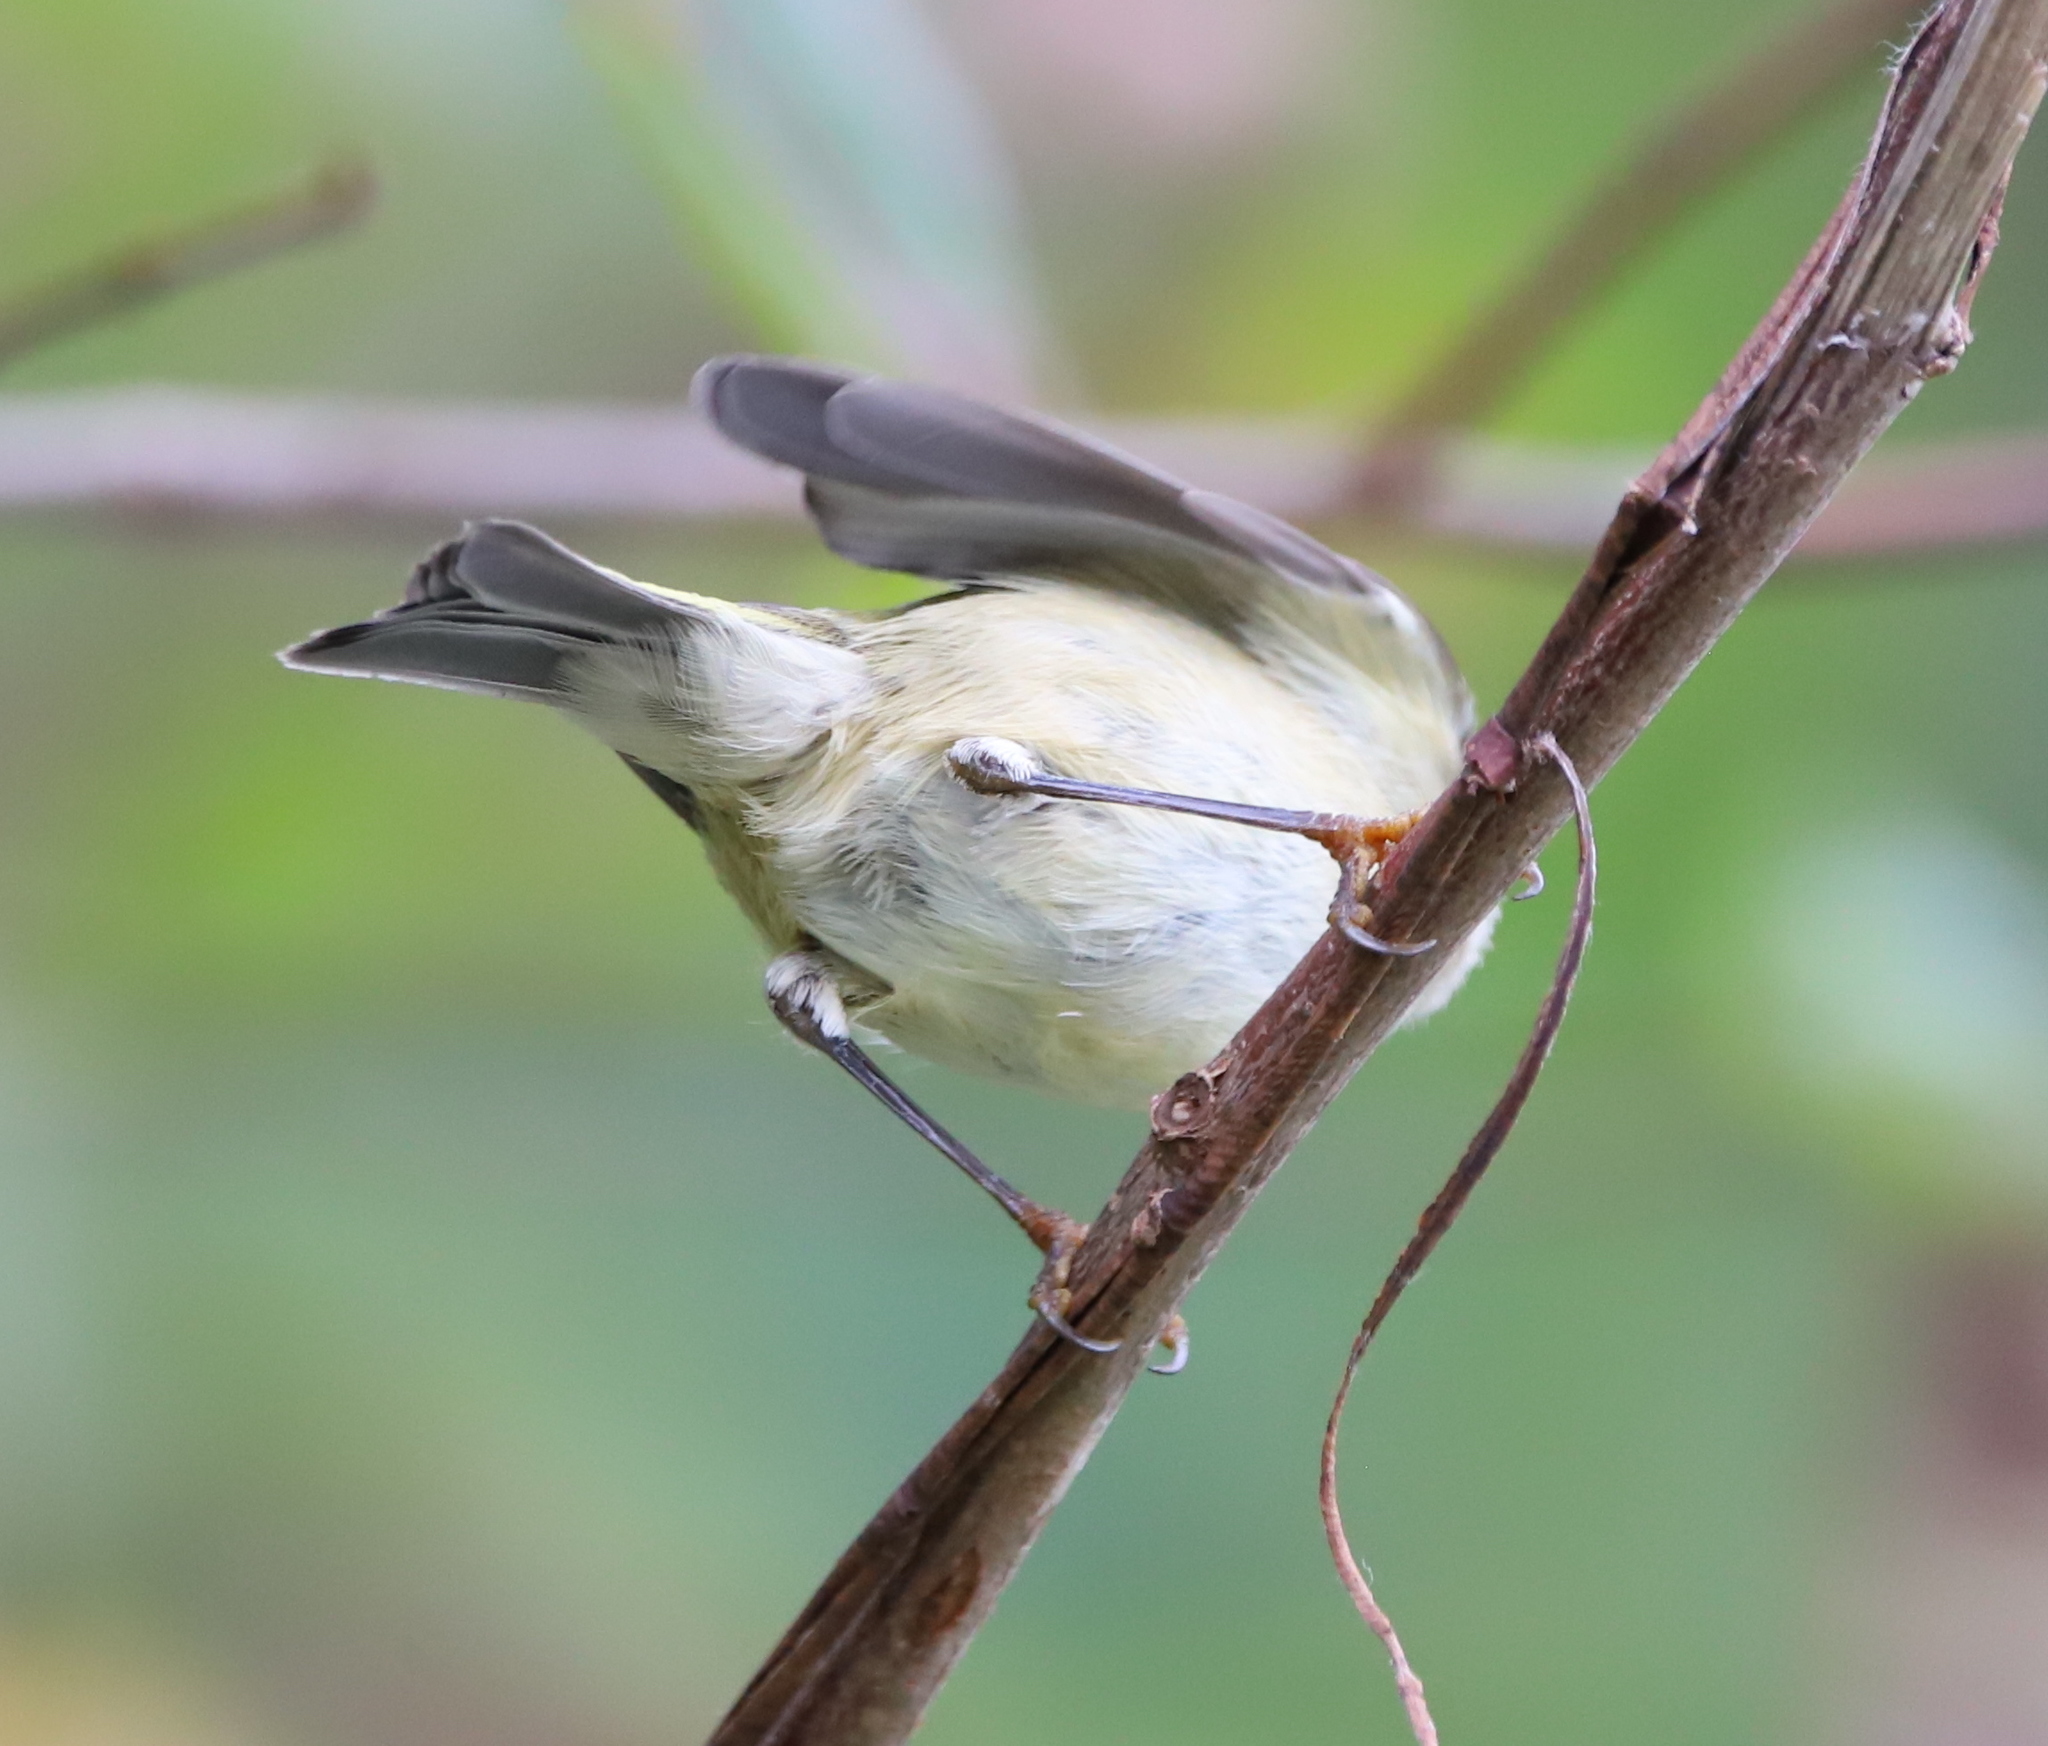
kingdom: Animalia
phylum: Chordata
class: Aves
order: Passeriformes
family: Regulidae
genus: Regulus
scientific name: Regulus calendula
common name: Ruby-crowned kinglet
